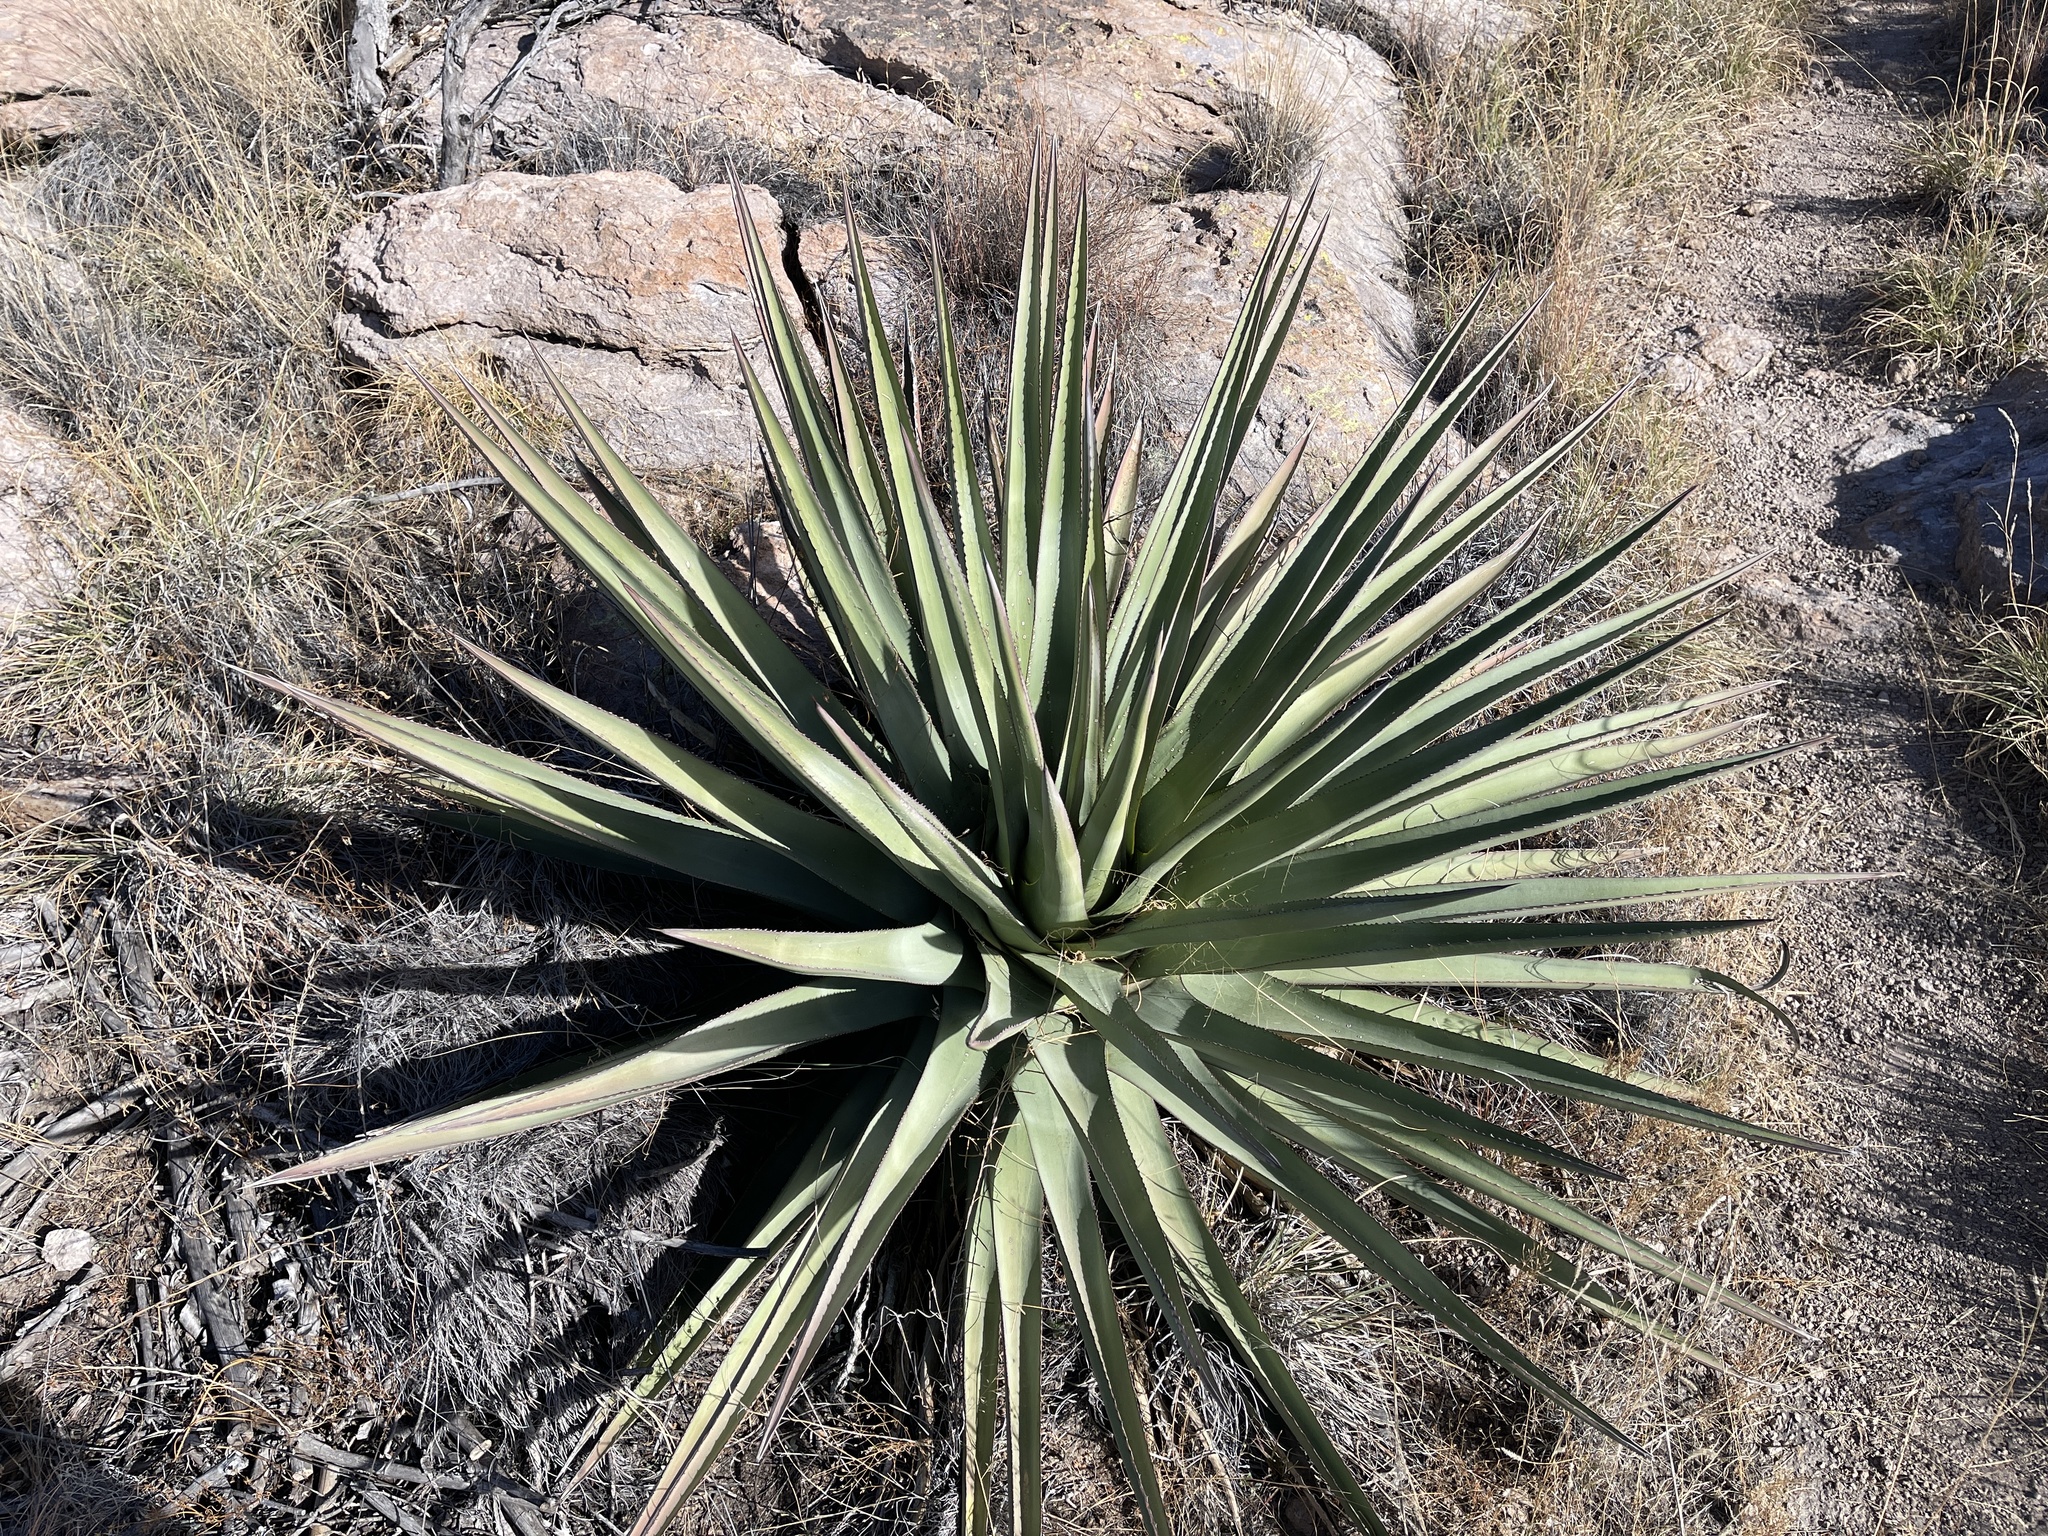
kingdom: Plantae
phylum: Tracheophyta
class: Liliopsida
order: Asparagales
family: Asparagaceae
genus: Agave
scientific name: Agave palmeri
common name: Palmer agave
